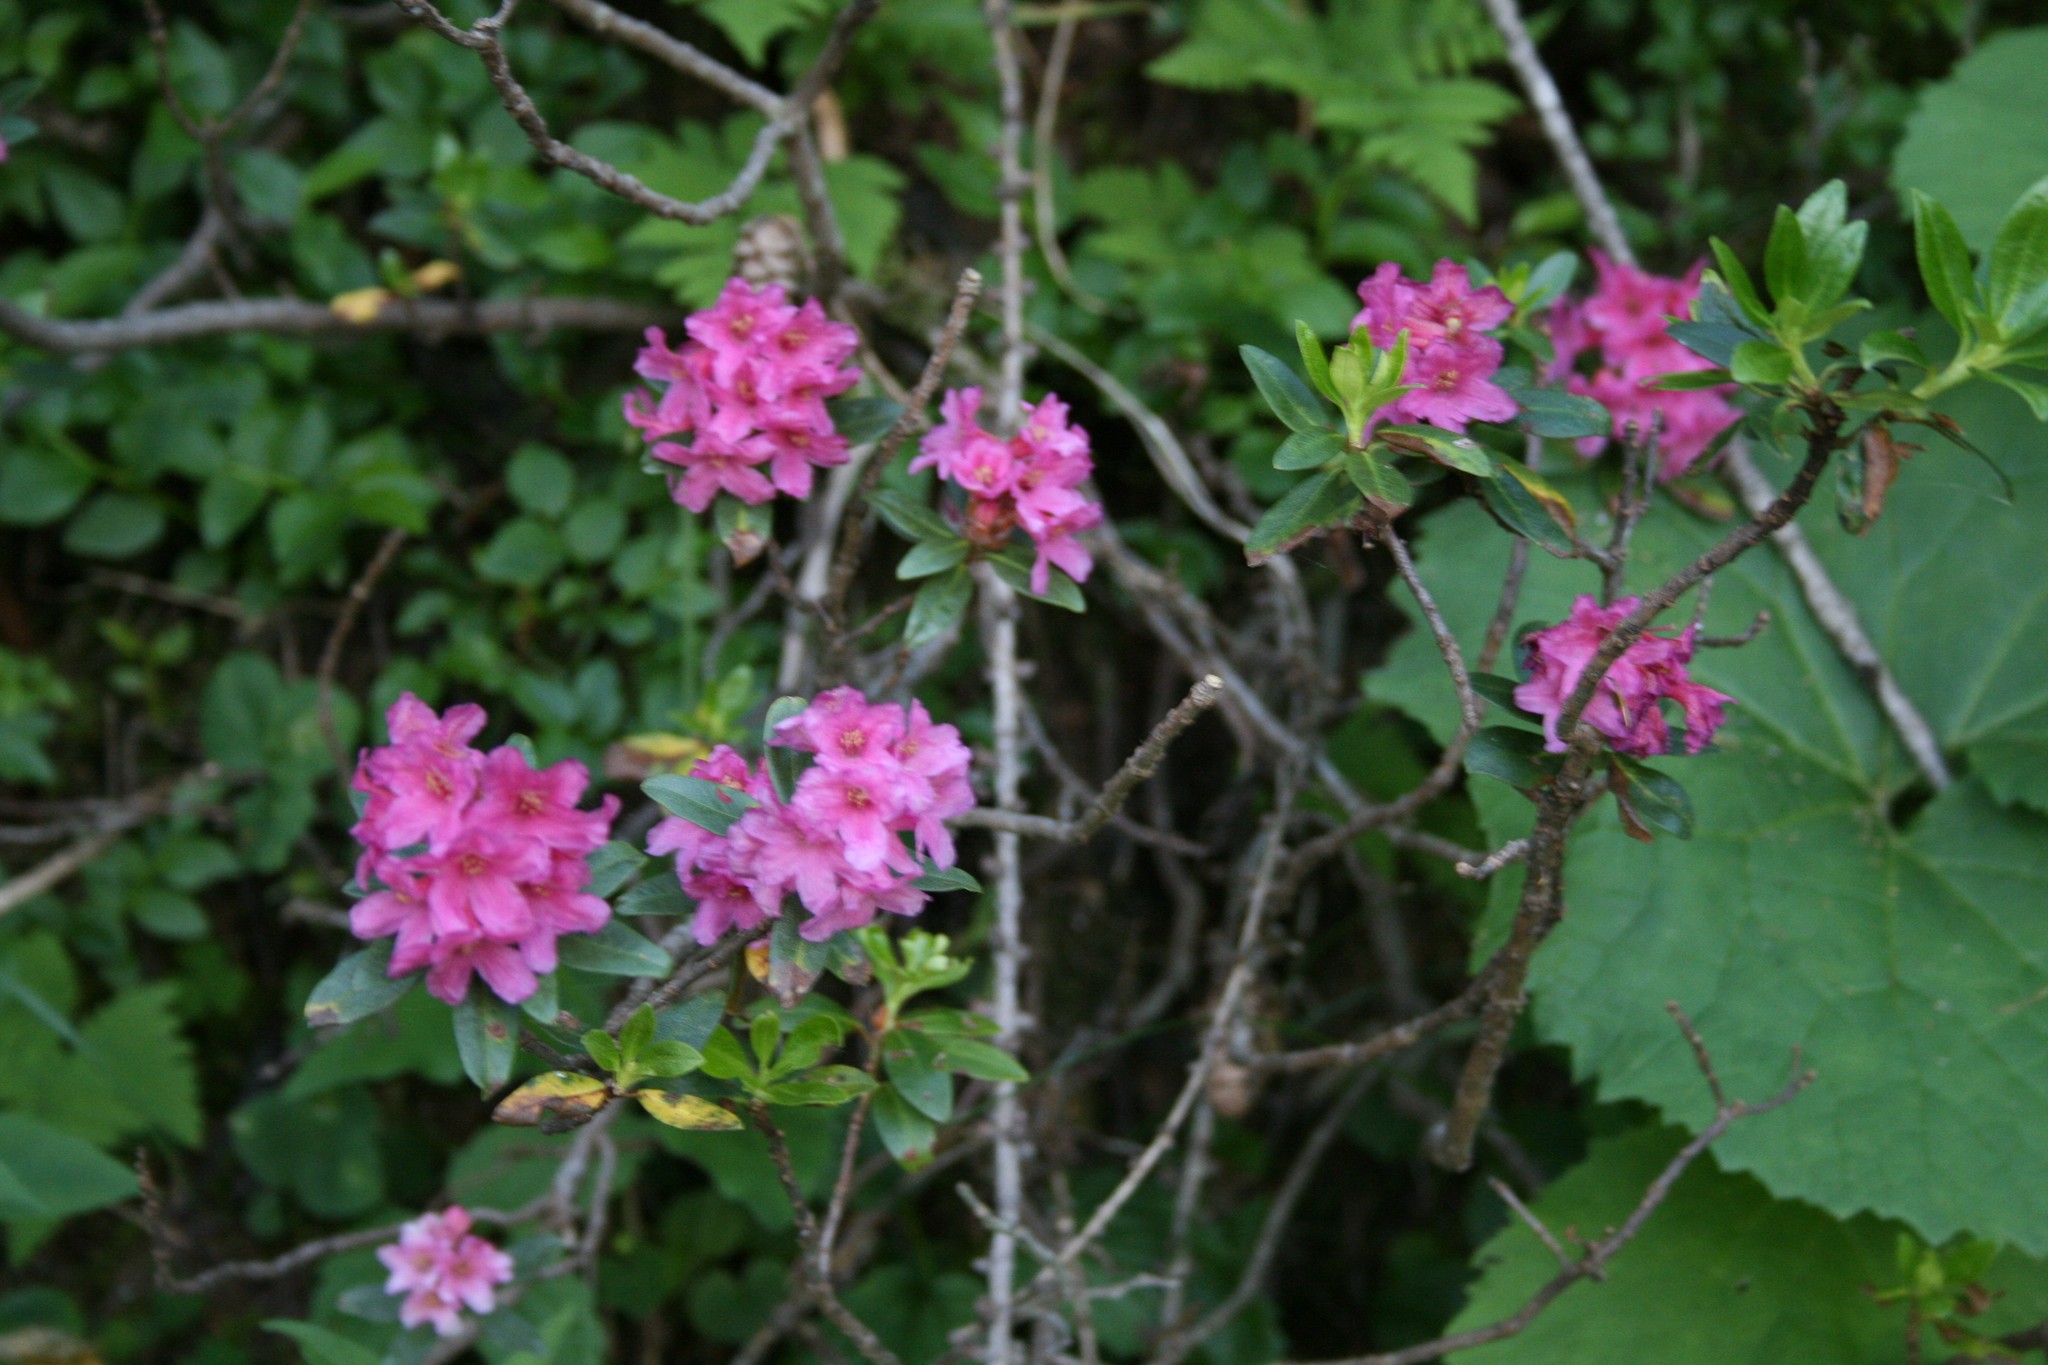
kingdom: Plantae
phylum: Tracheophyta
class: Magnoliopsida
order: Ericales
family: Ericaceae
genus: Rhododendron
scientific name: Rhododendron ferrugineum
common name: Alpenrose
